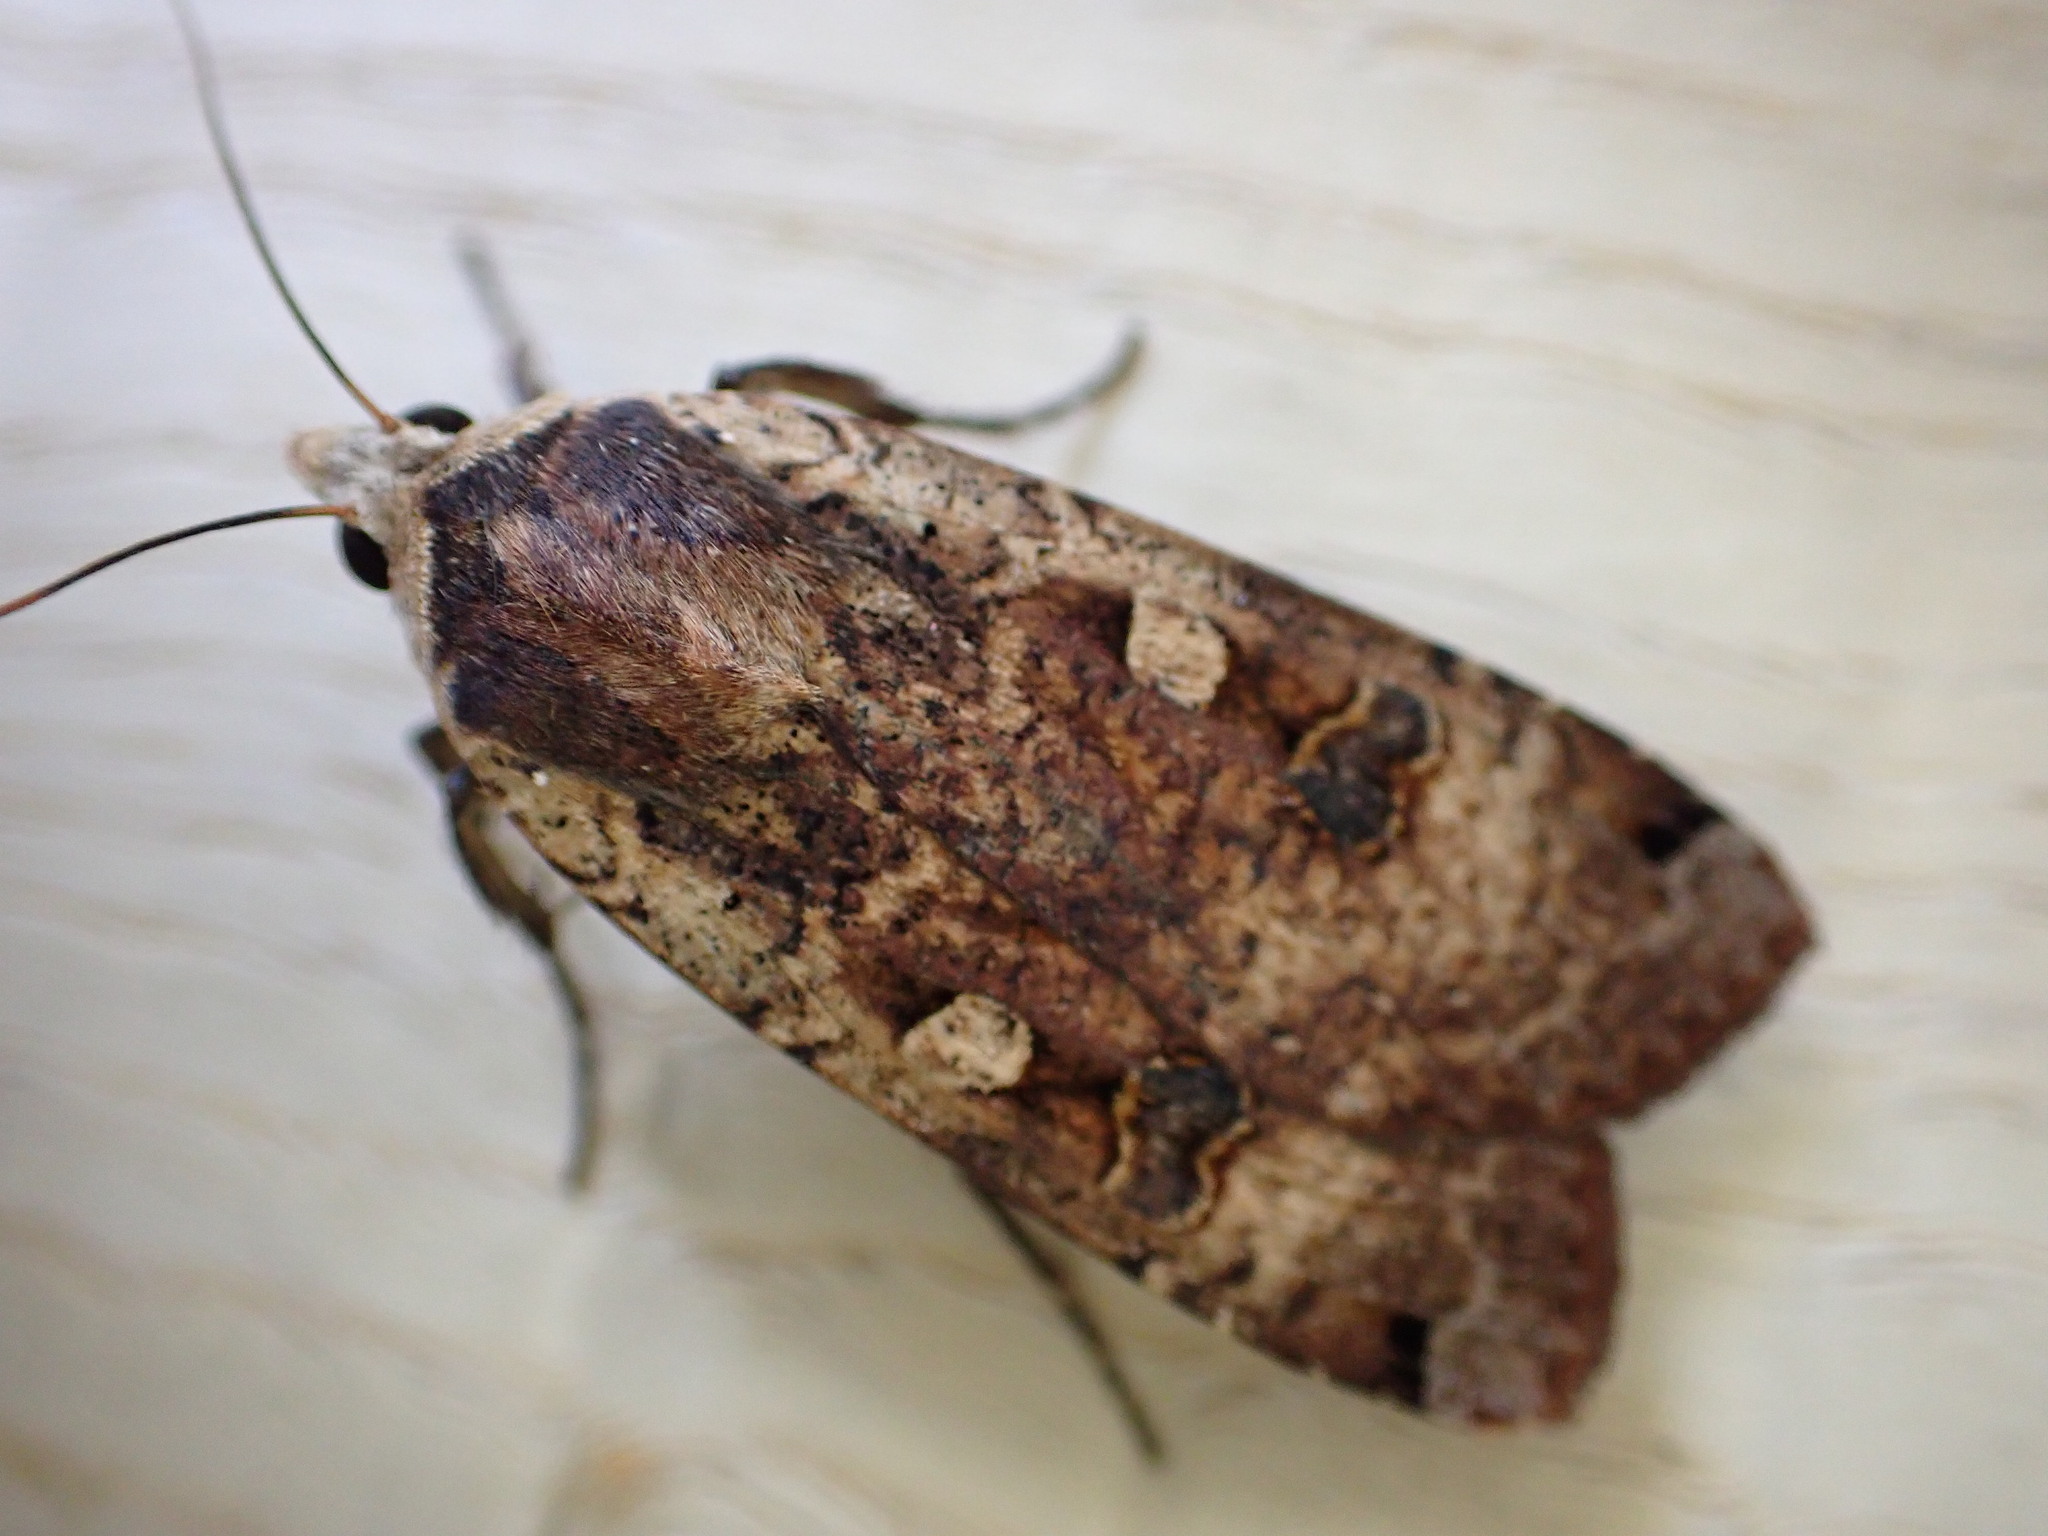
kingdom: Animalia
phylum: Arthropoda
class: Insecta
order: Lepidoptera
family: Noctuidae
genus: Noctua
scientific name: Noctua pronuba
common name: Large yellow underwing
